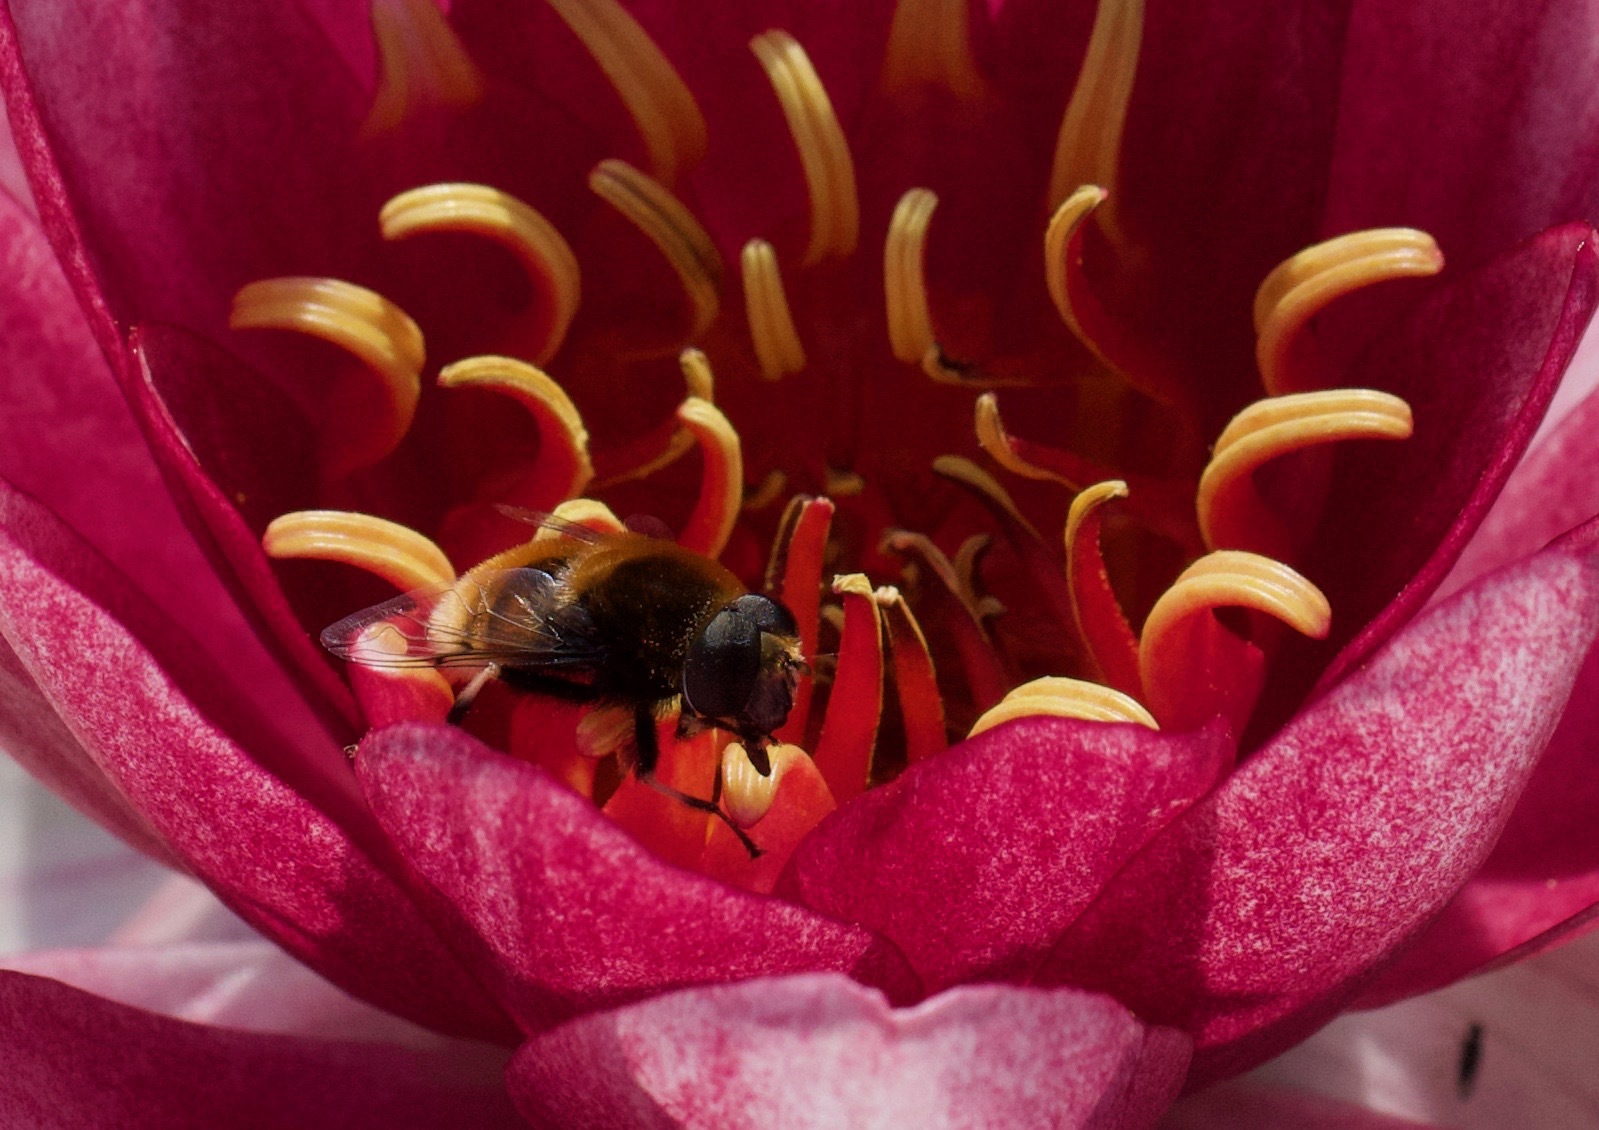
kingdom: Animalia
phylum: Arthropoda
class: Insecta
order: Diptera
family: Syrphidae
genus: Eristalis
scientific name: Eristalis intricaria
